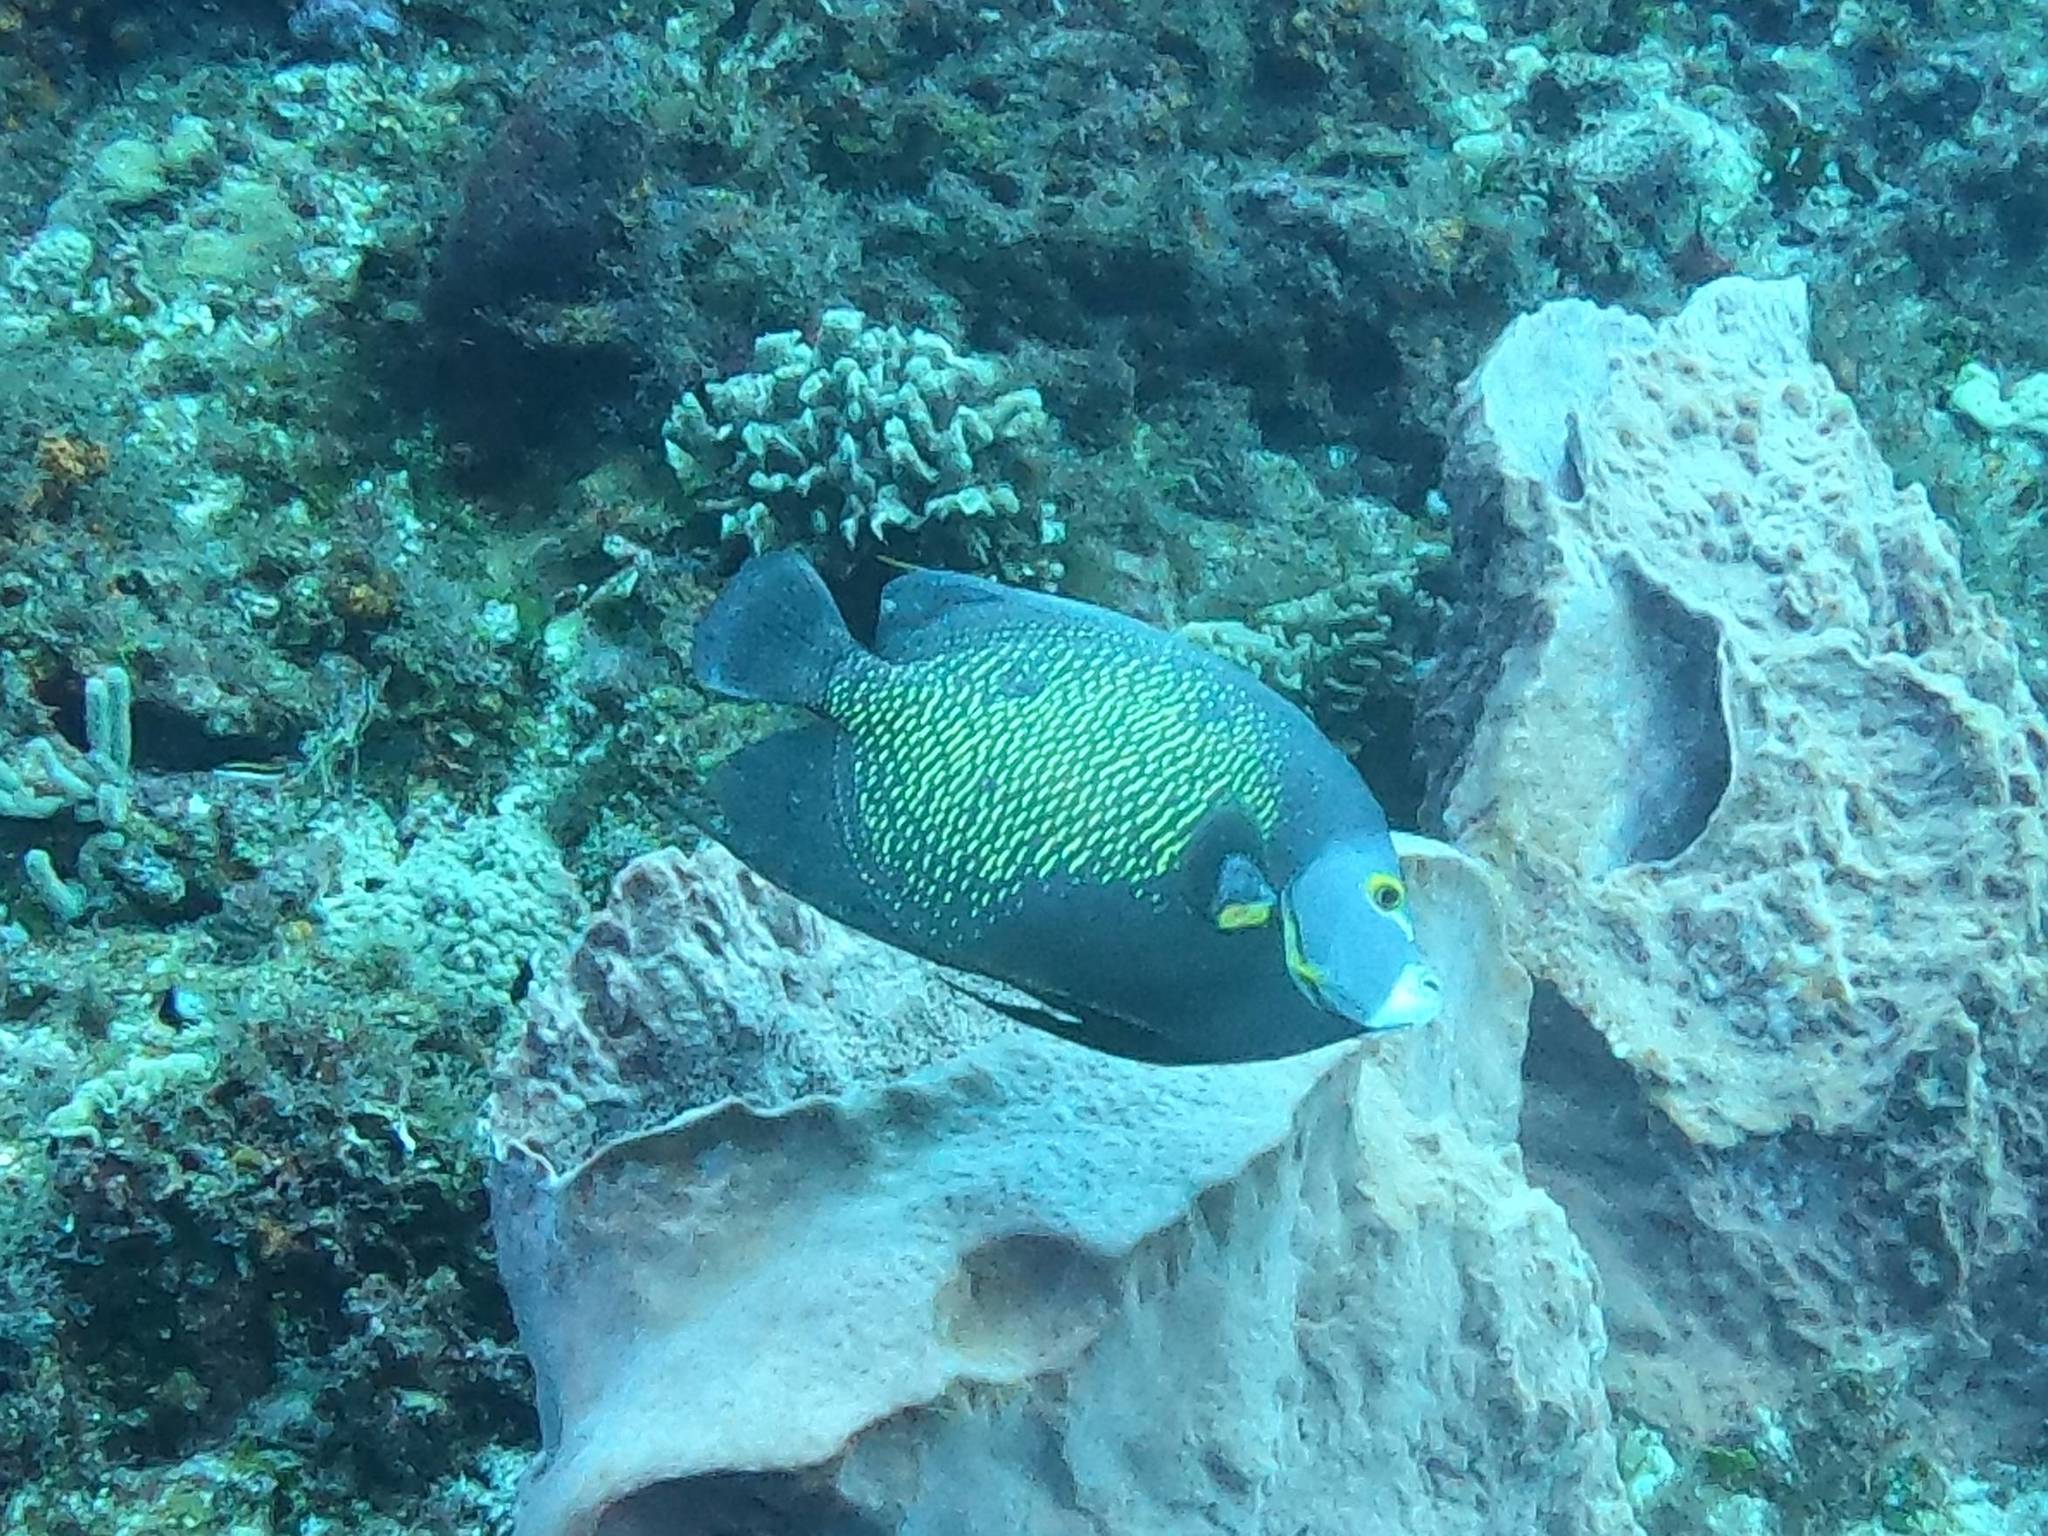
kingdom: Animalia
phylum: Chordata
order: Perciformes
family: Pomacanthidae
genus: Pomacanthus
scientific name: Pomacanthus paru
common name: French angelfish
